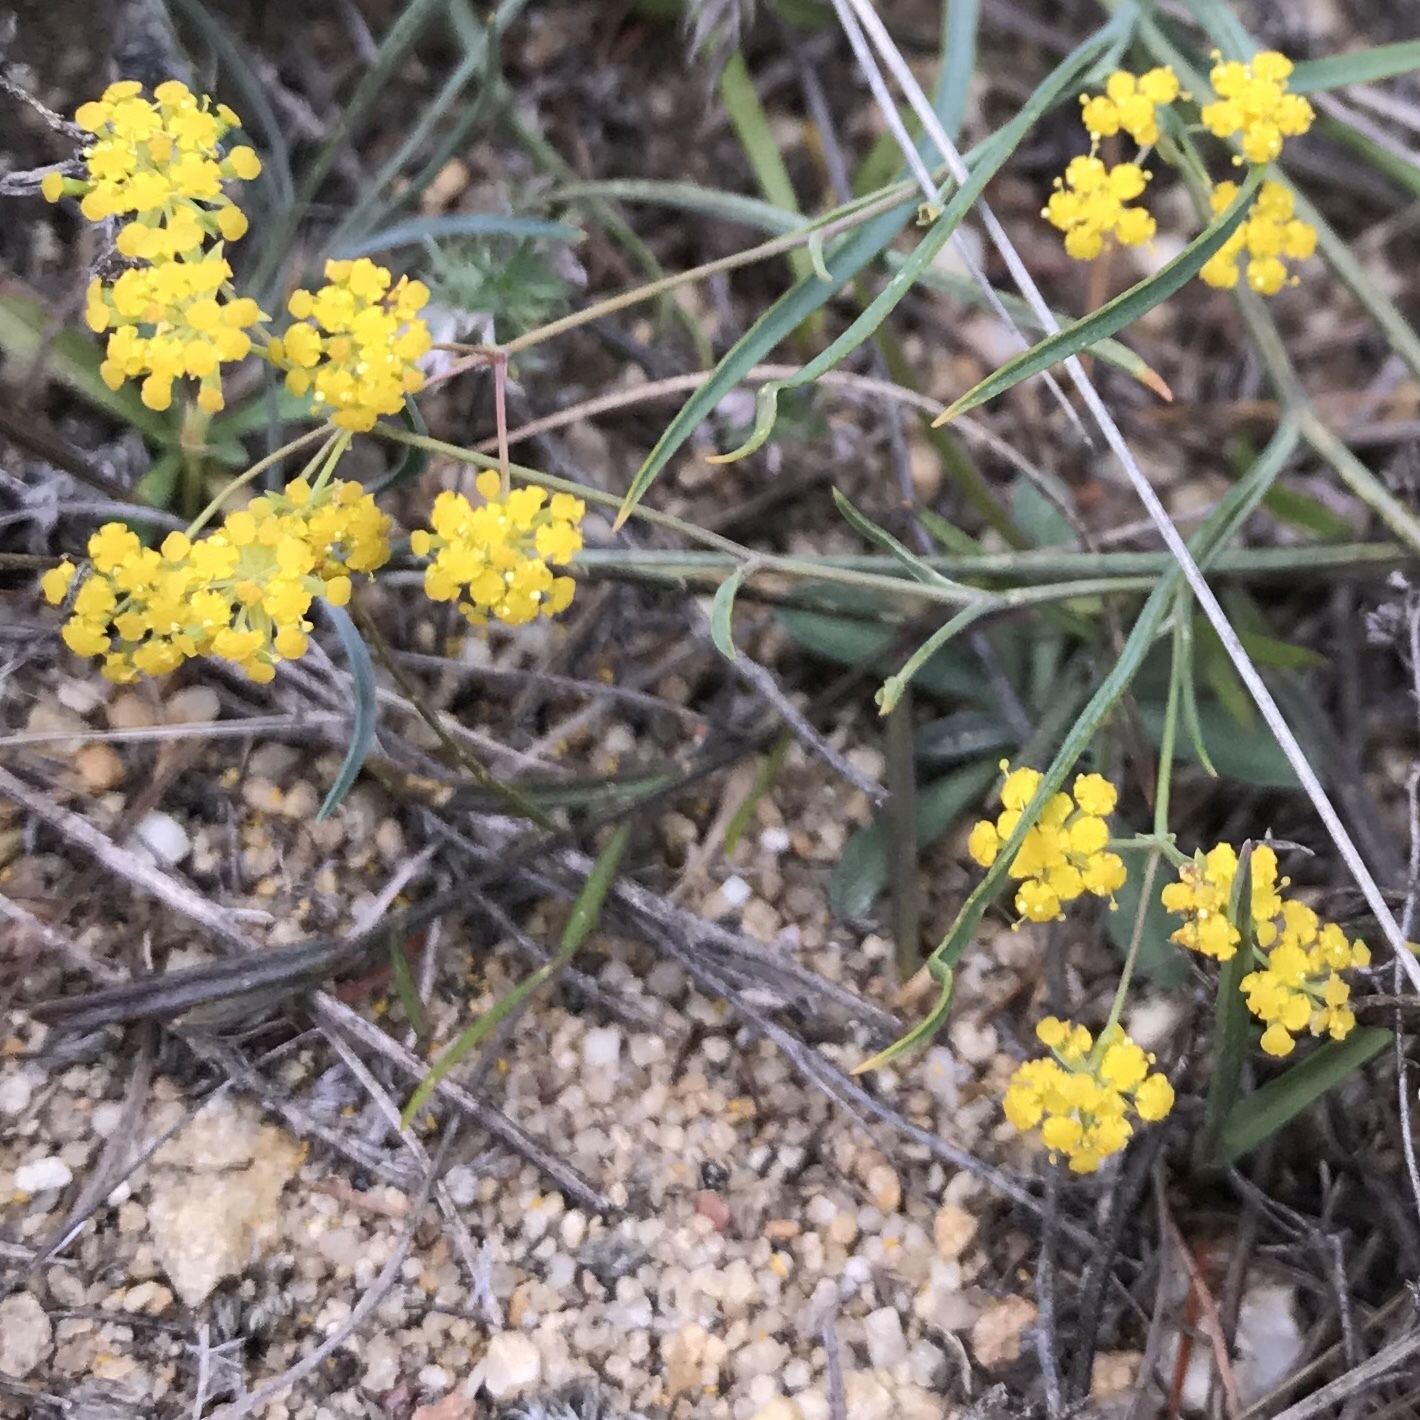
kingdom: Plantae
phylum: Tracheophyta
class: Magnoliopsida
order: Apiales
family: Apiaceae
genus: Bupleurum
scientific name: Bupleurum bicaule
